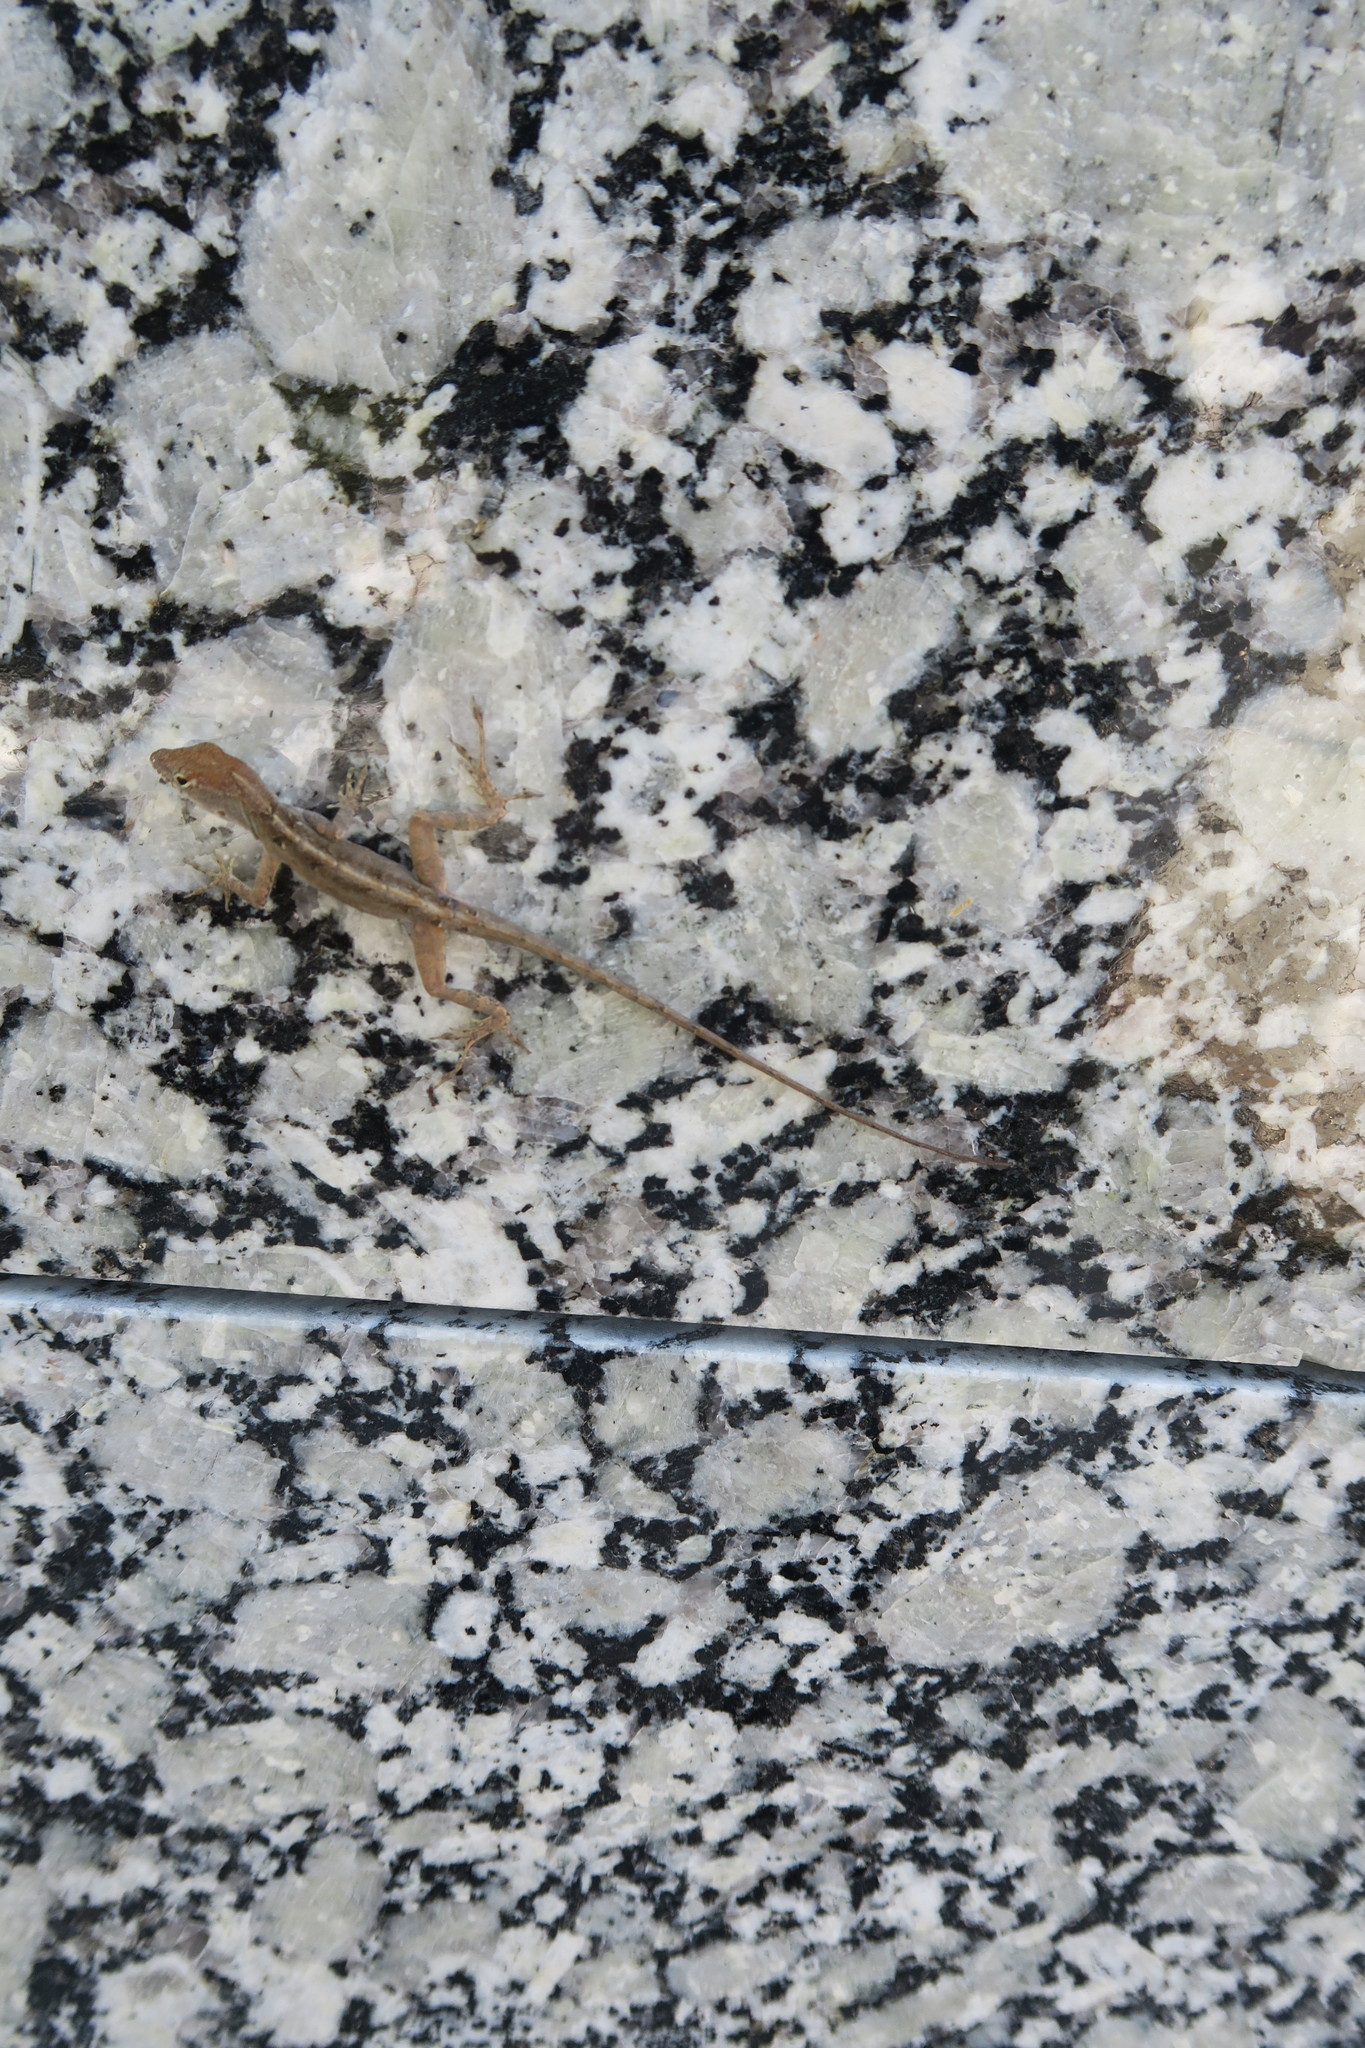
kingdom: Animalia
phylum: Chordata
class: Squamata
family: Dactyloidae
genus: Anolis
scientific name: Anolis sagrei
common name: Brown anole
